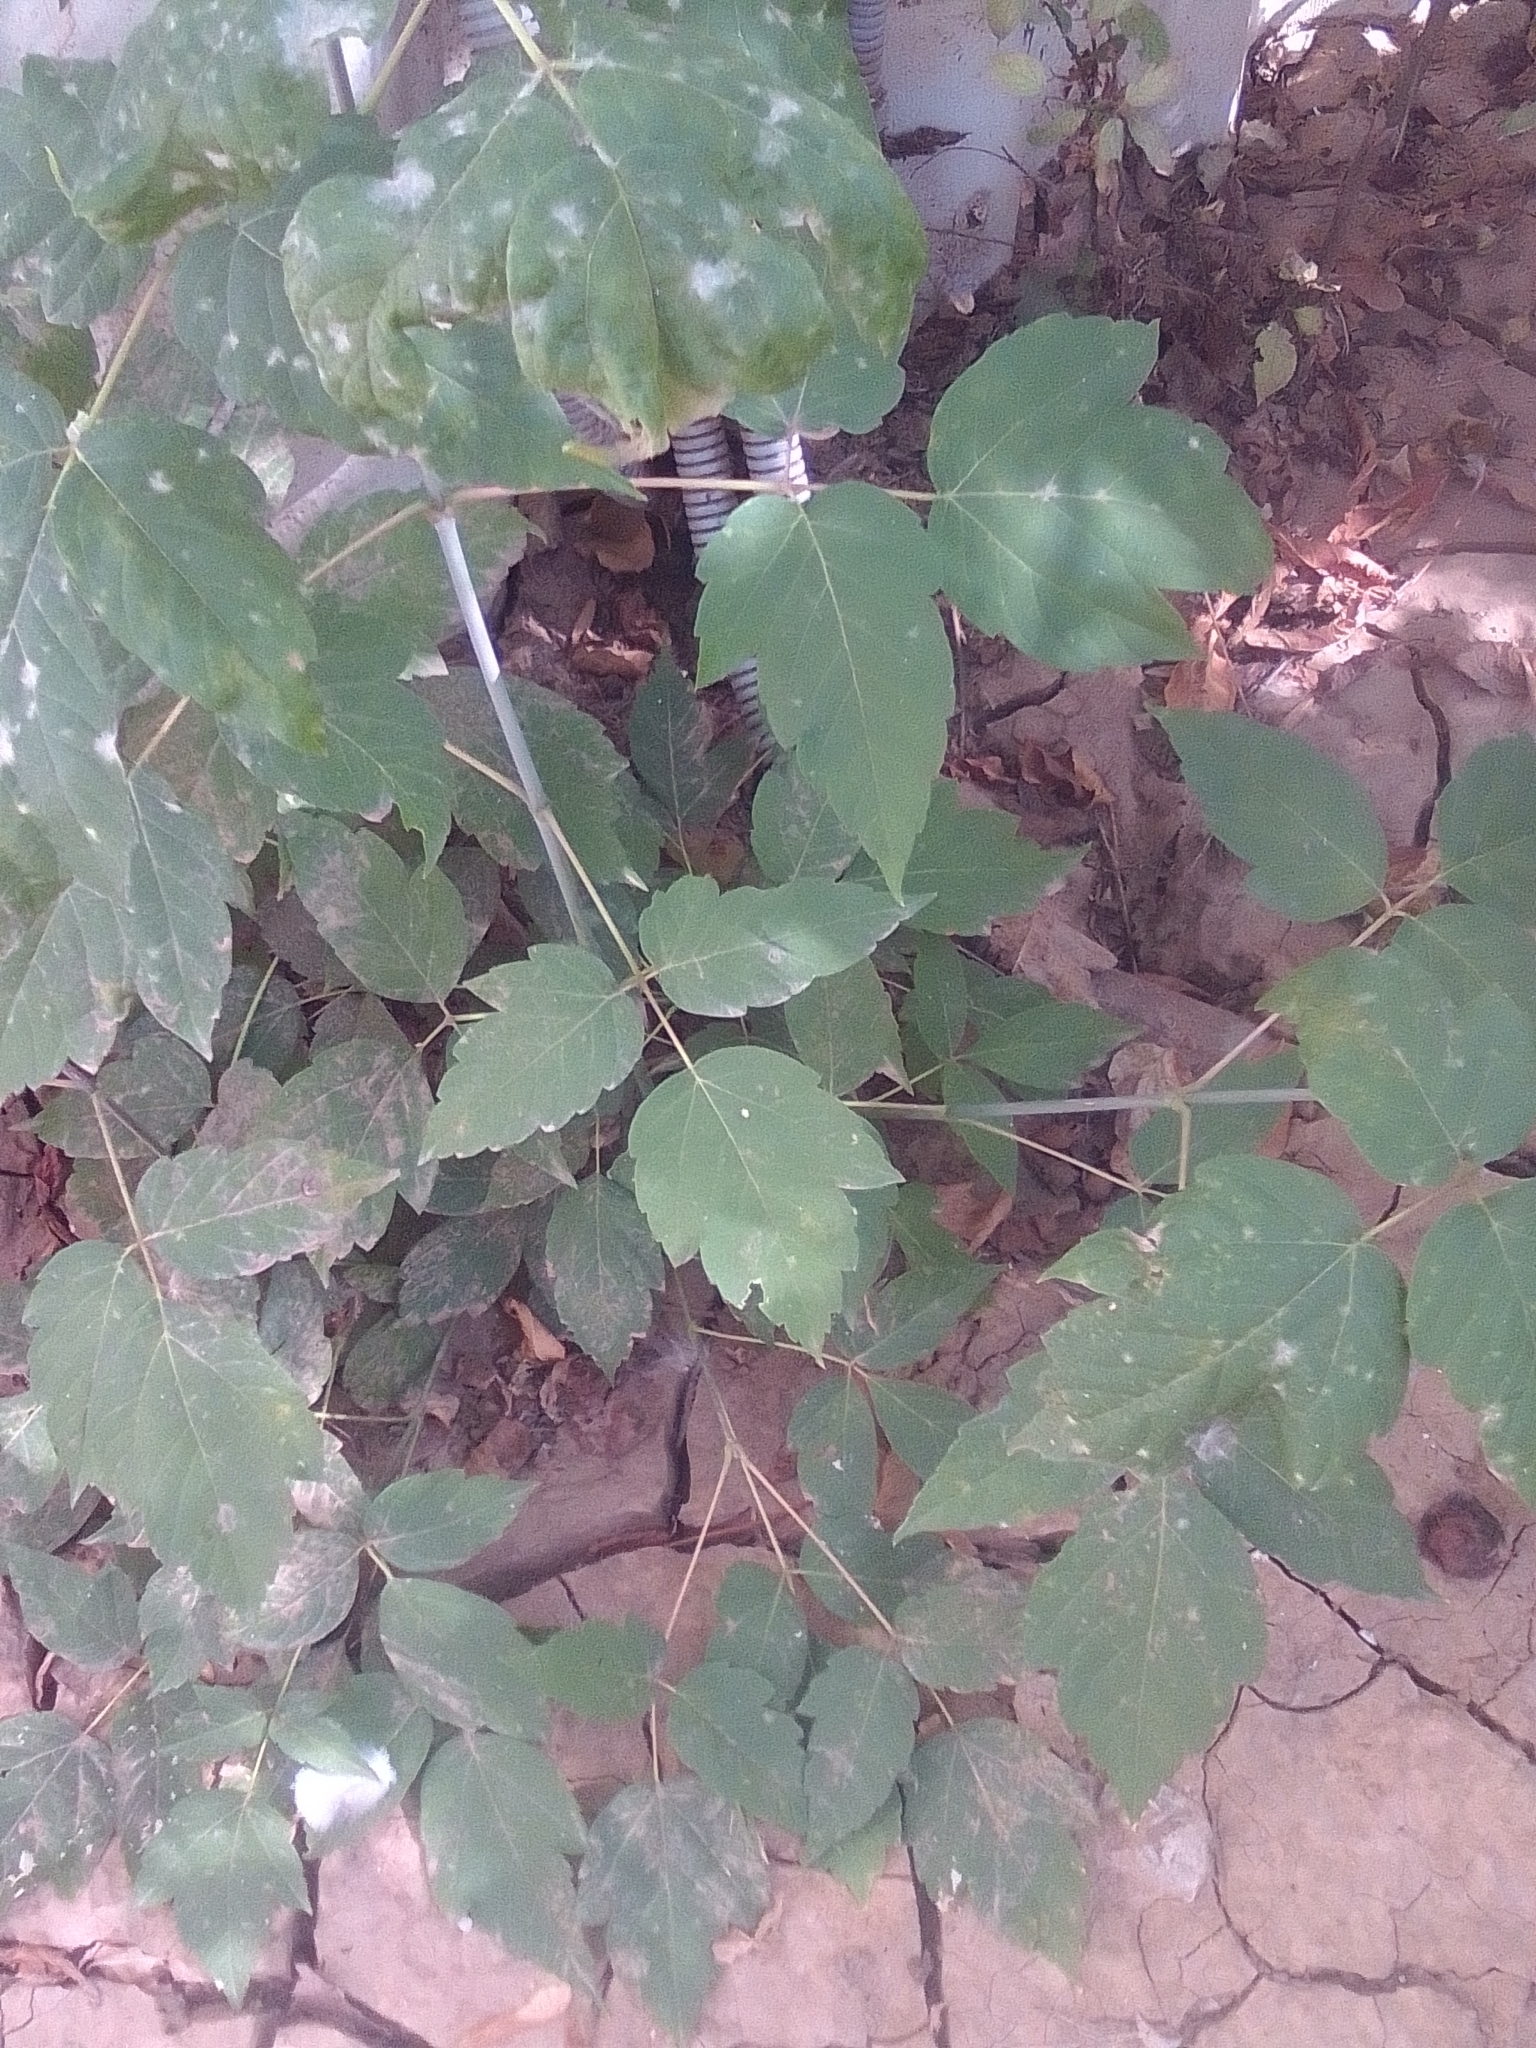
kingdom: Plantae
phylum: Tracheophyta
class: Magnoliopsida
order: Sapindales
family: Sapindaceae
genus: Acer
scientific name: Acer negundo
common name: Ashleaf maple
